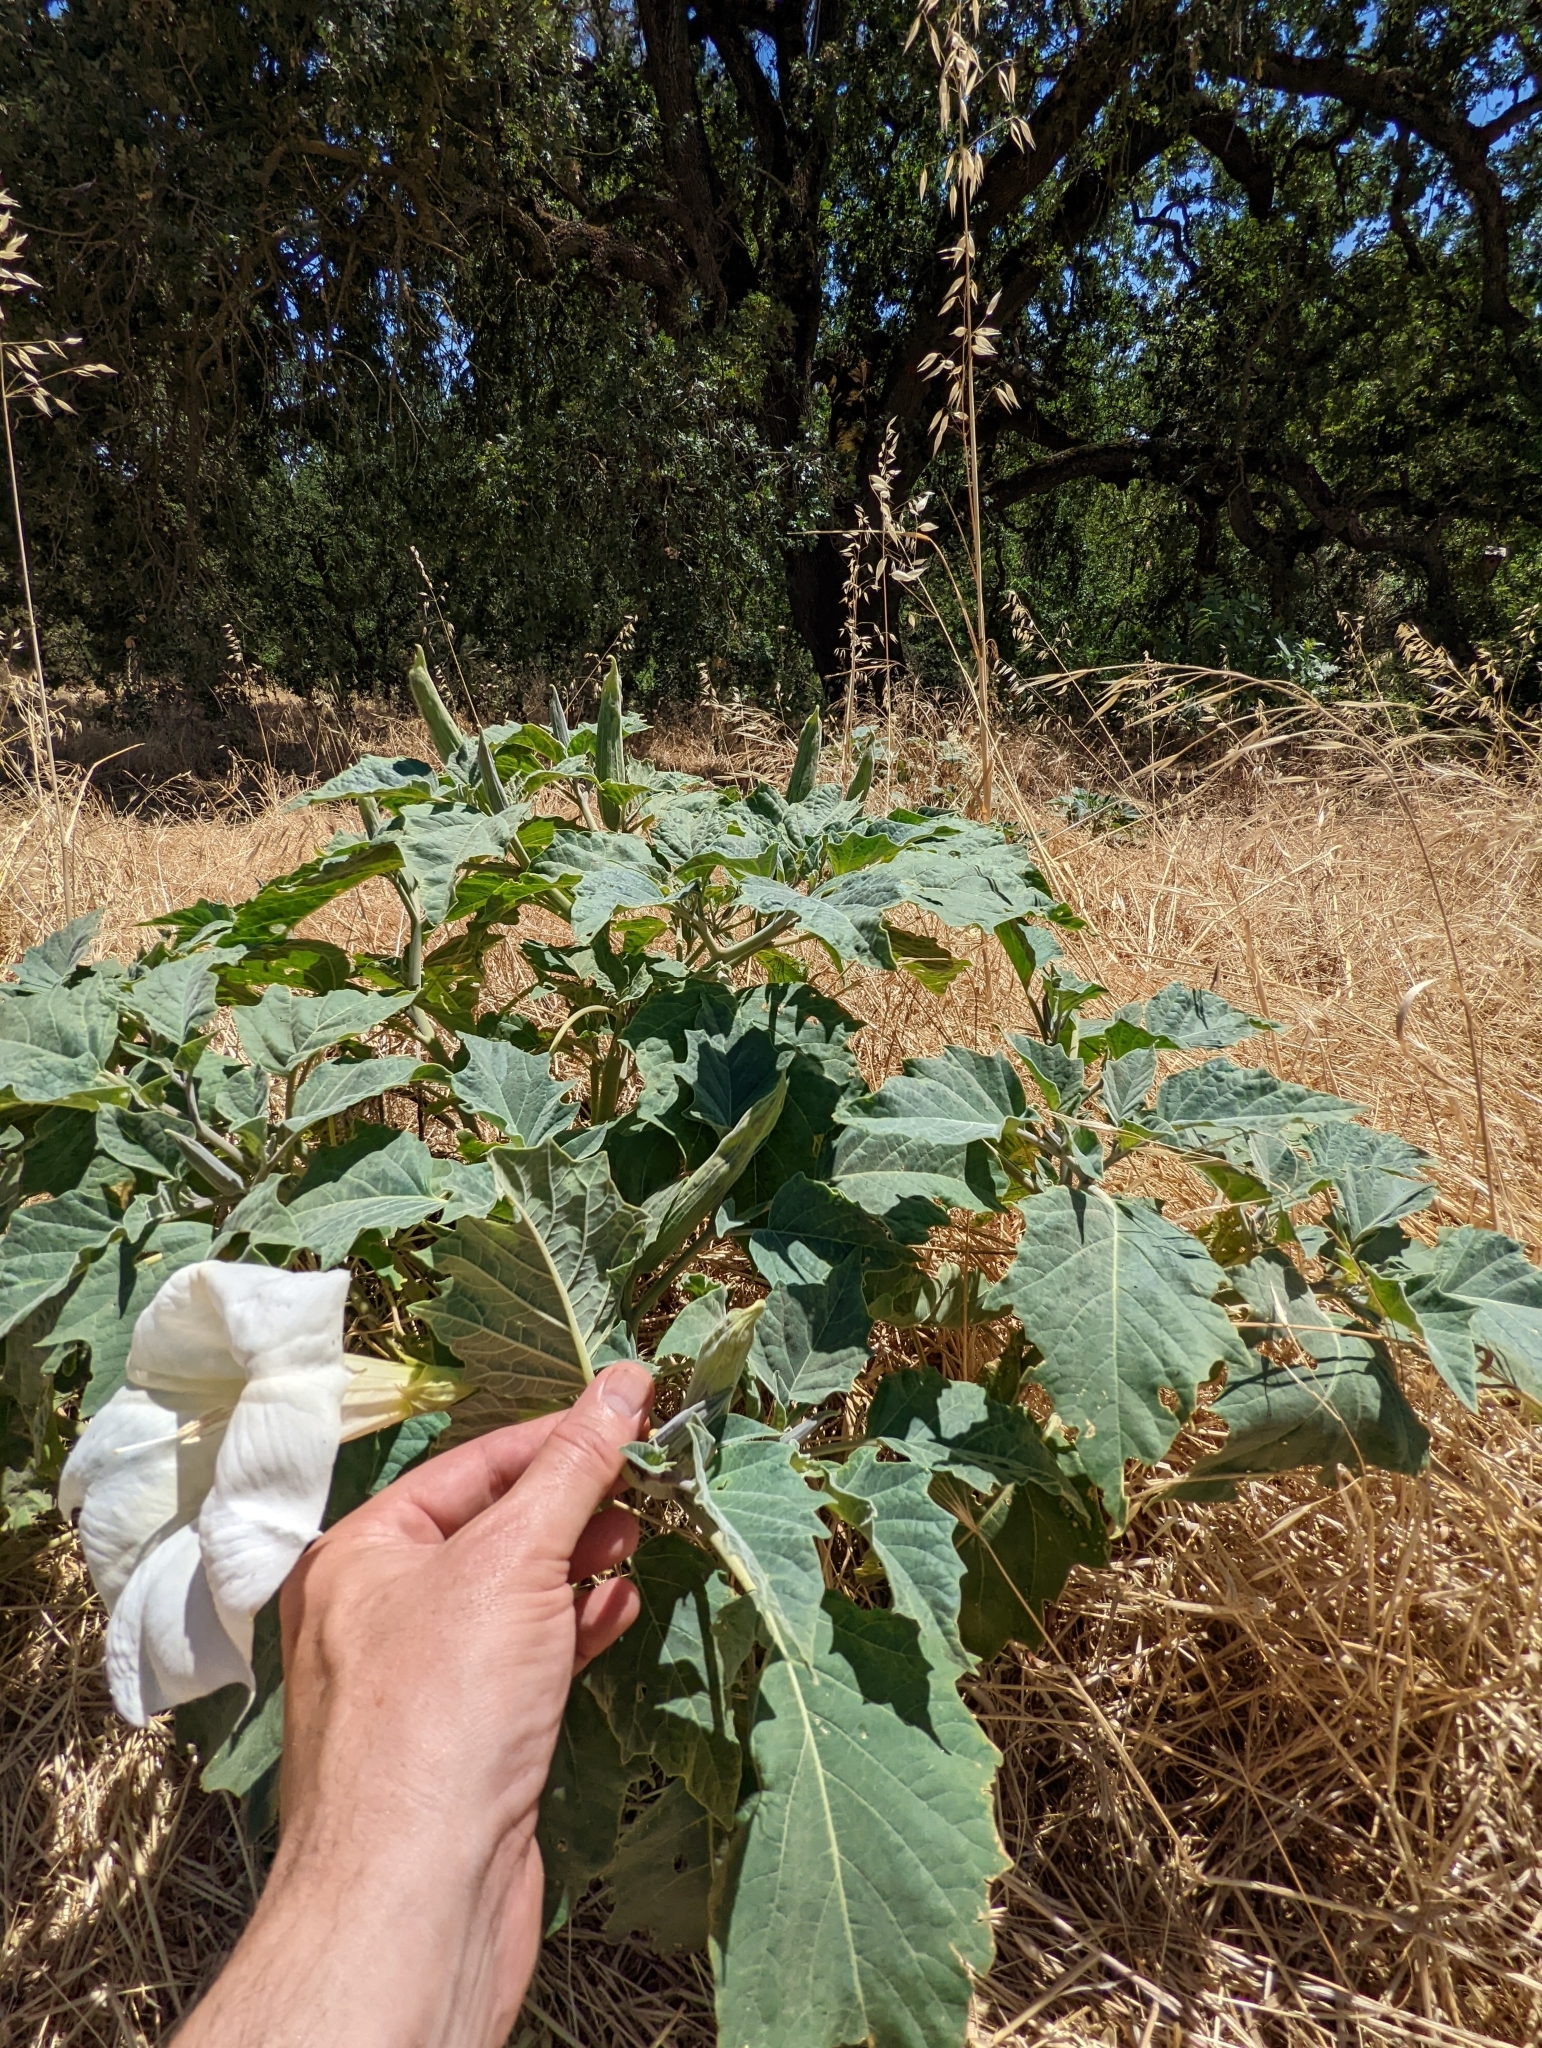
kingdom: Plantae
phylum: Tracheophyta
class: Magnoliopsida
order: Solanales
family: Solanaceae
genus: Datura
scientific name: Datura wrightii
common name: Sacred thorn-apple
